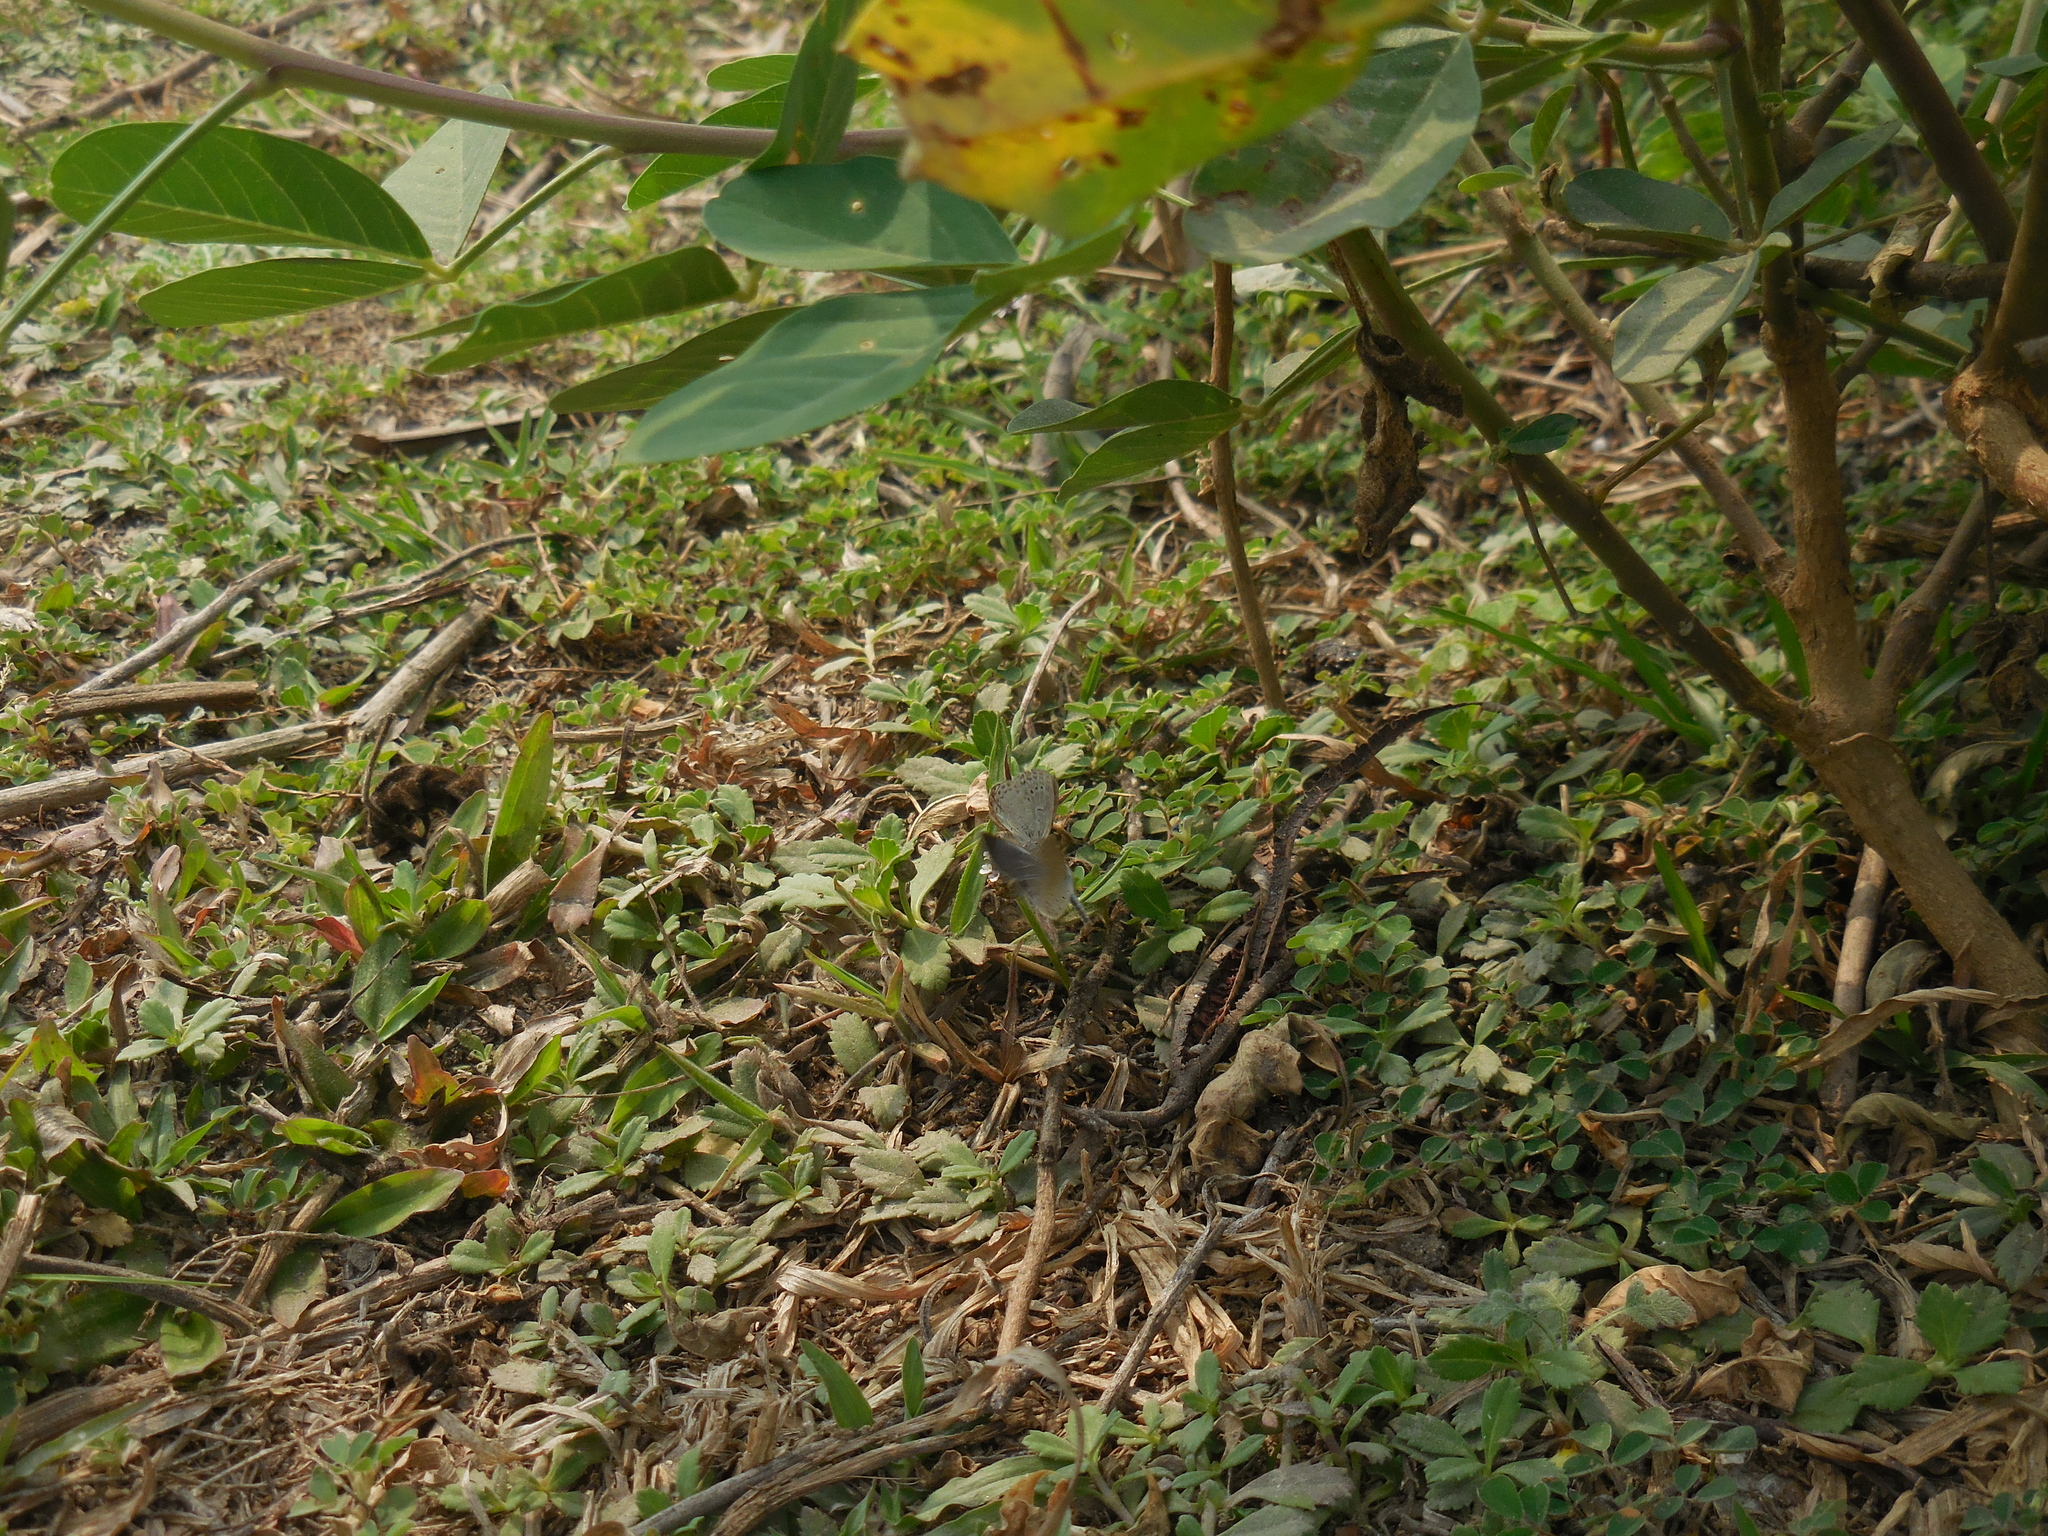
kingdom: Animalia
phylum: Arthropoda
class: Insecta
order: Lepidoptera
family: Lycaenidae
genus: Zizula
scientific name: Zizula hylax
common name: Gaika blue
